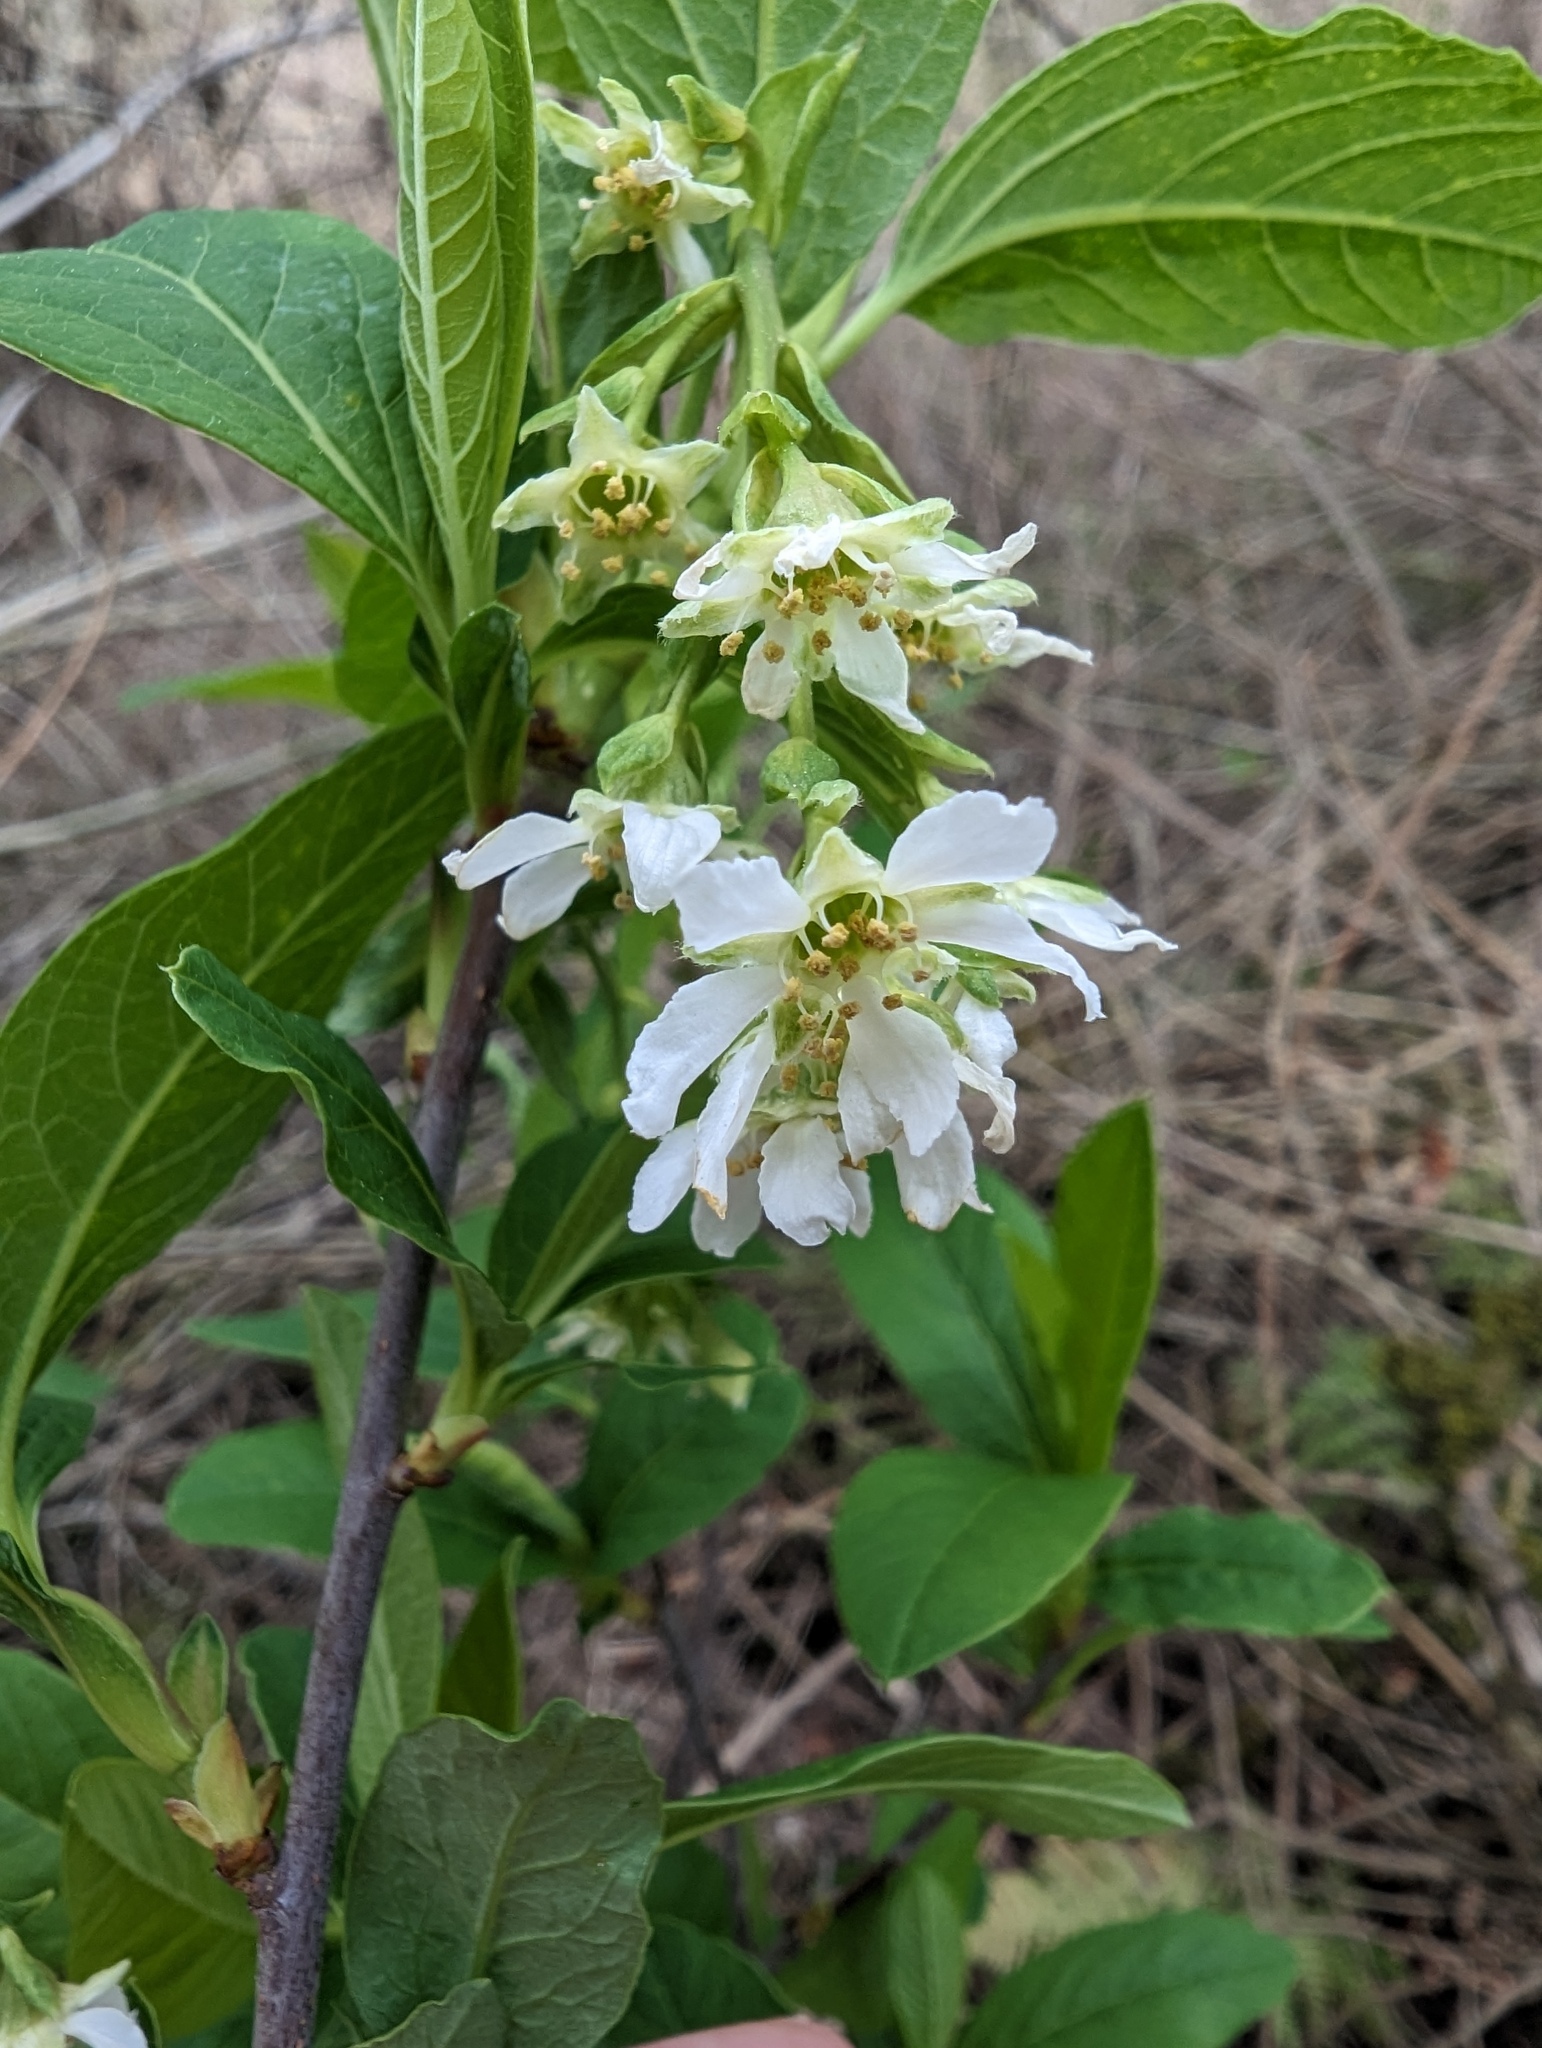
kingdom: Plantae
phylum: Tracheophyta
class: Magnoliopsida
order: Rosales
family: Rosaceae
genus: Oemleria
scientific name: Oemleria cerasiformis
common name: Osoberry
